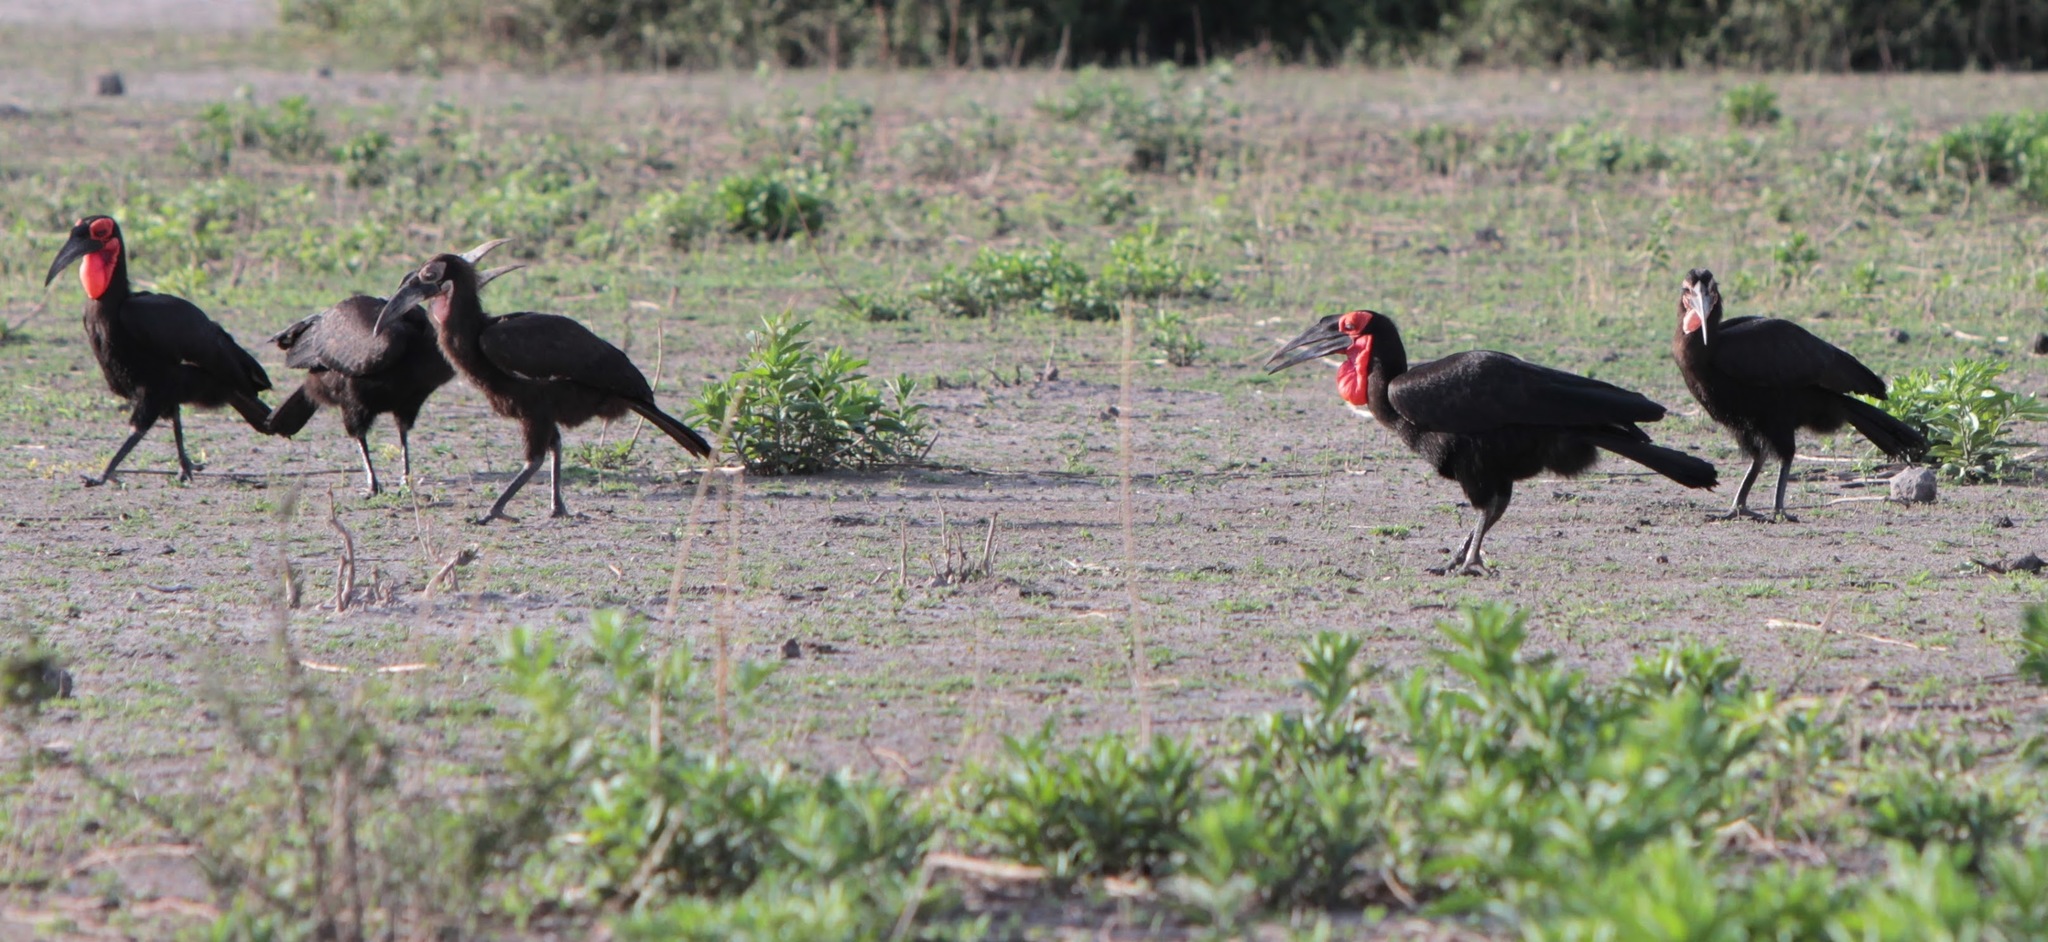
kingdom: Animalia
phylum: Chordata
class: Aves
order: Bucerotiformes
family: Bucorvidae
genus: Bucorvus
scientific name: Bucorvus leadbeateri
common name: Southern ground-hornbill
